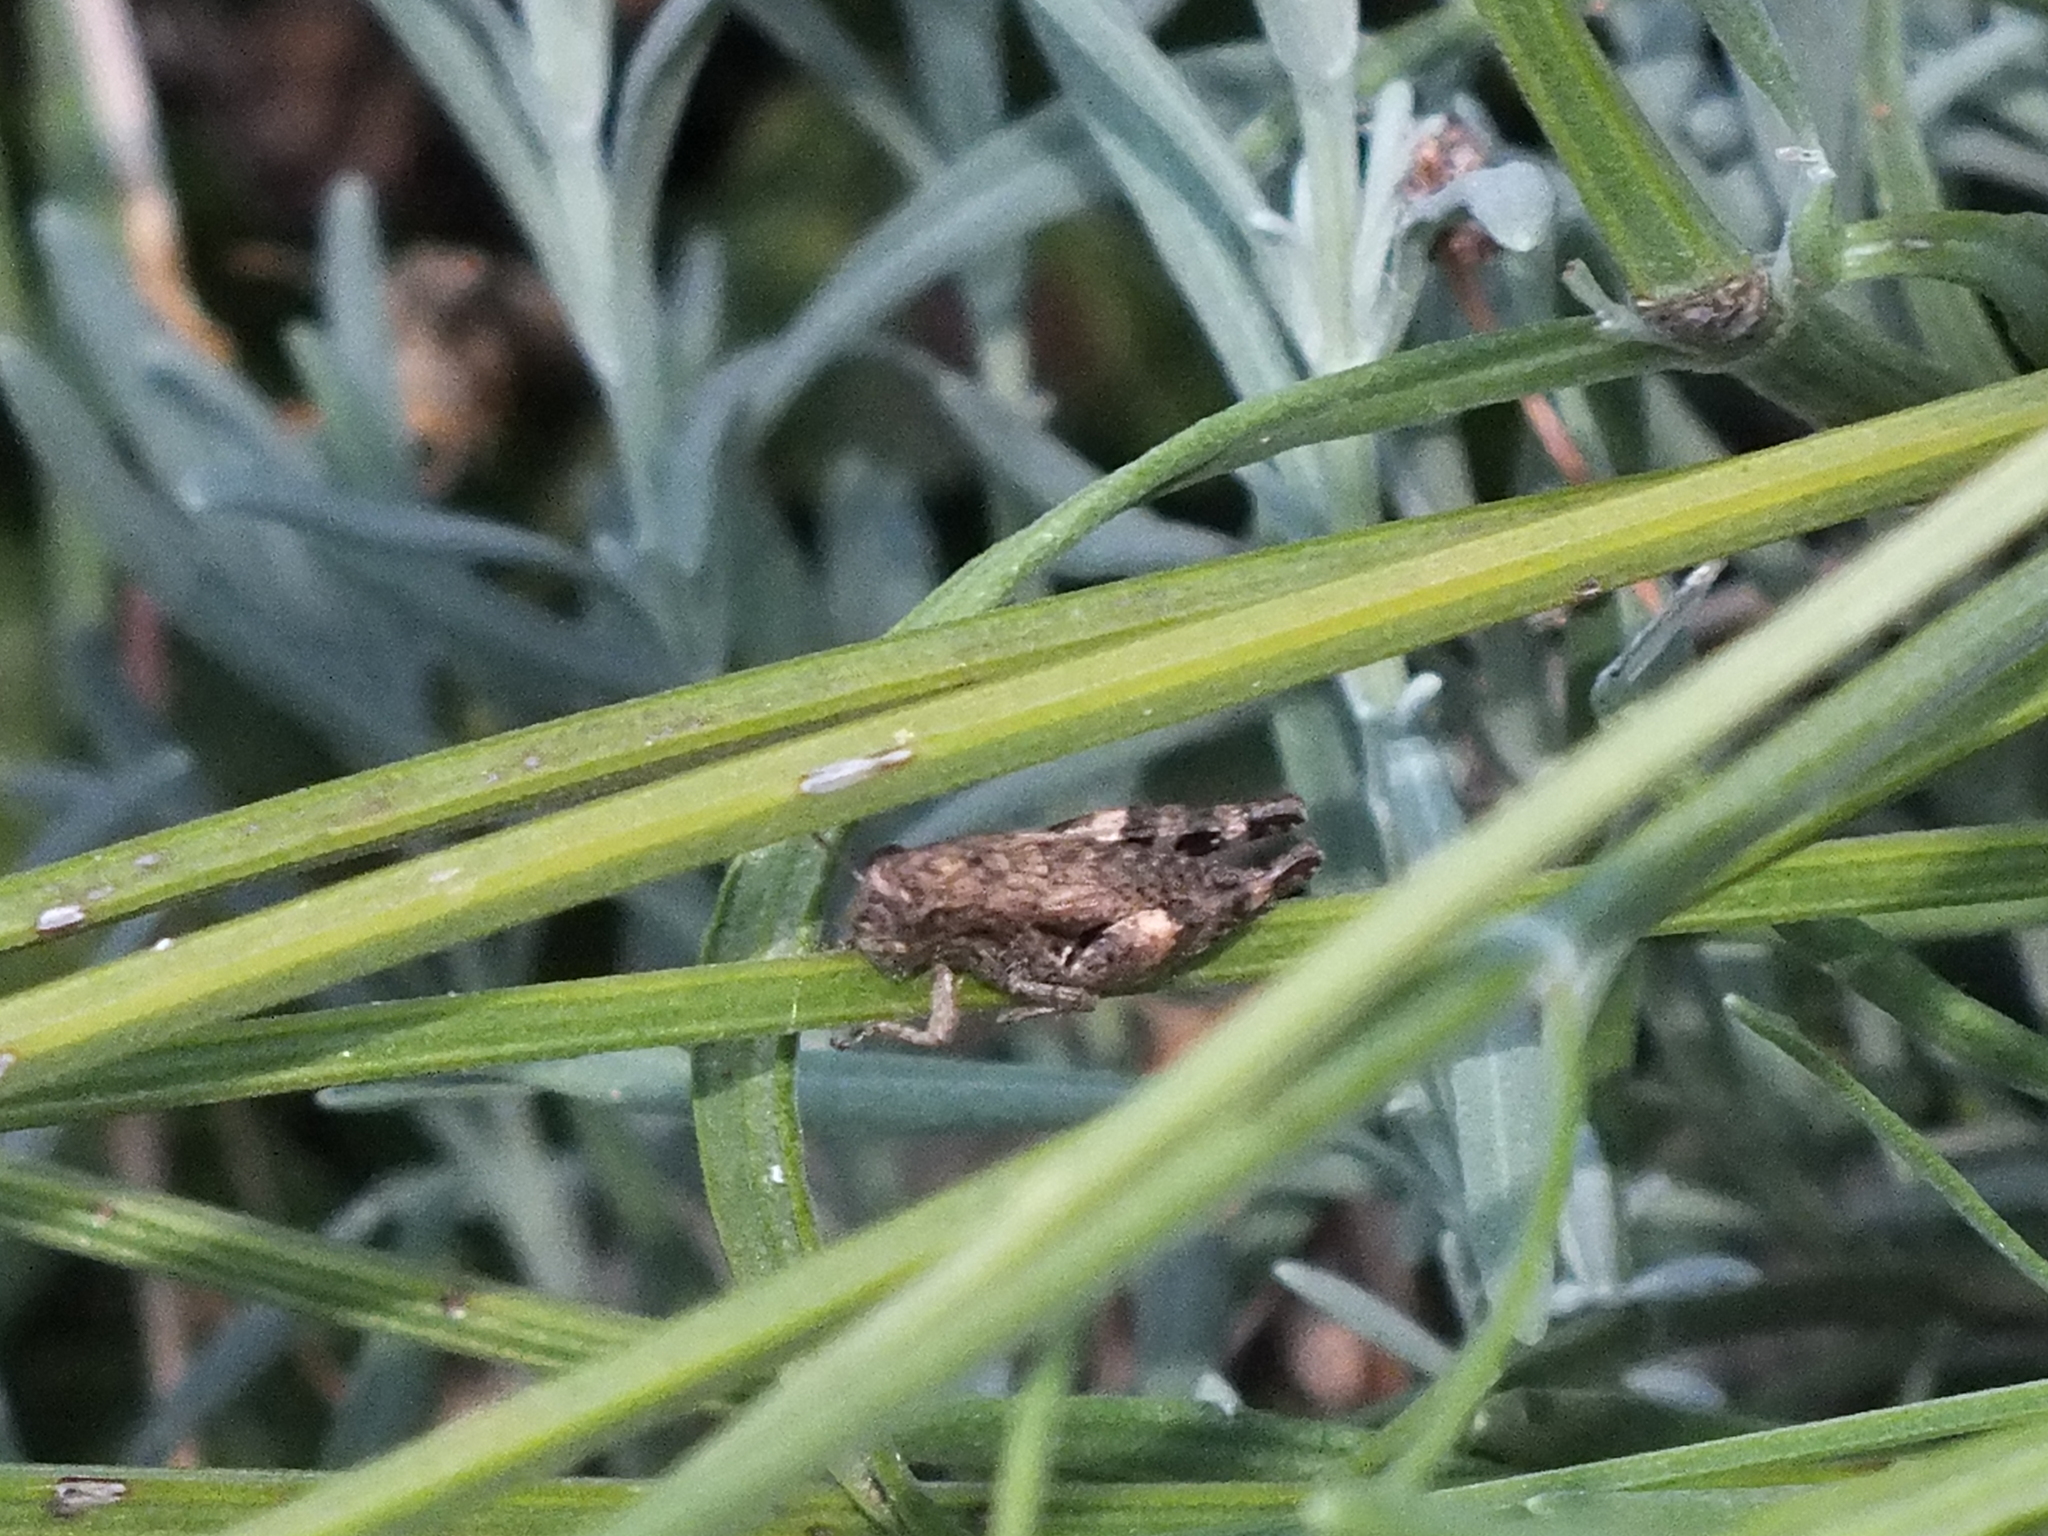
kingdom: Animalia
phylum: Arthropoda
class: Insecta
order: Orthoptera
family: Acrididae
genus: Pezotettix
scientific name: Pezotettix giornae
